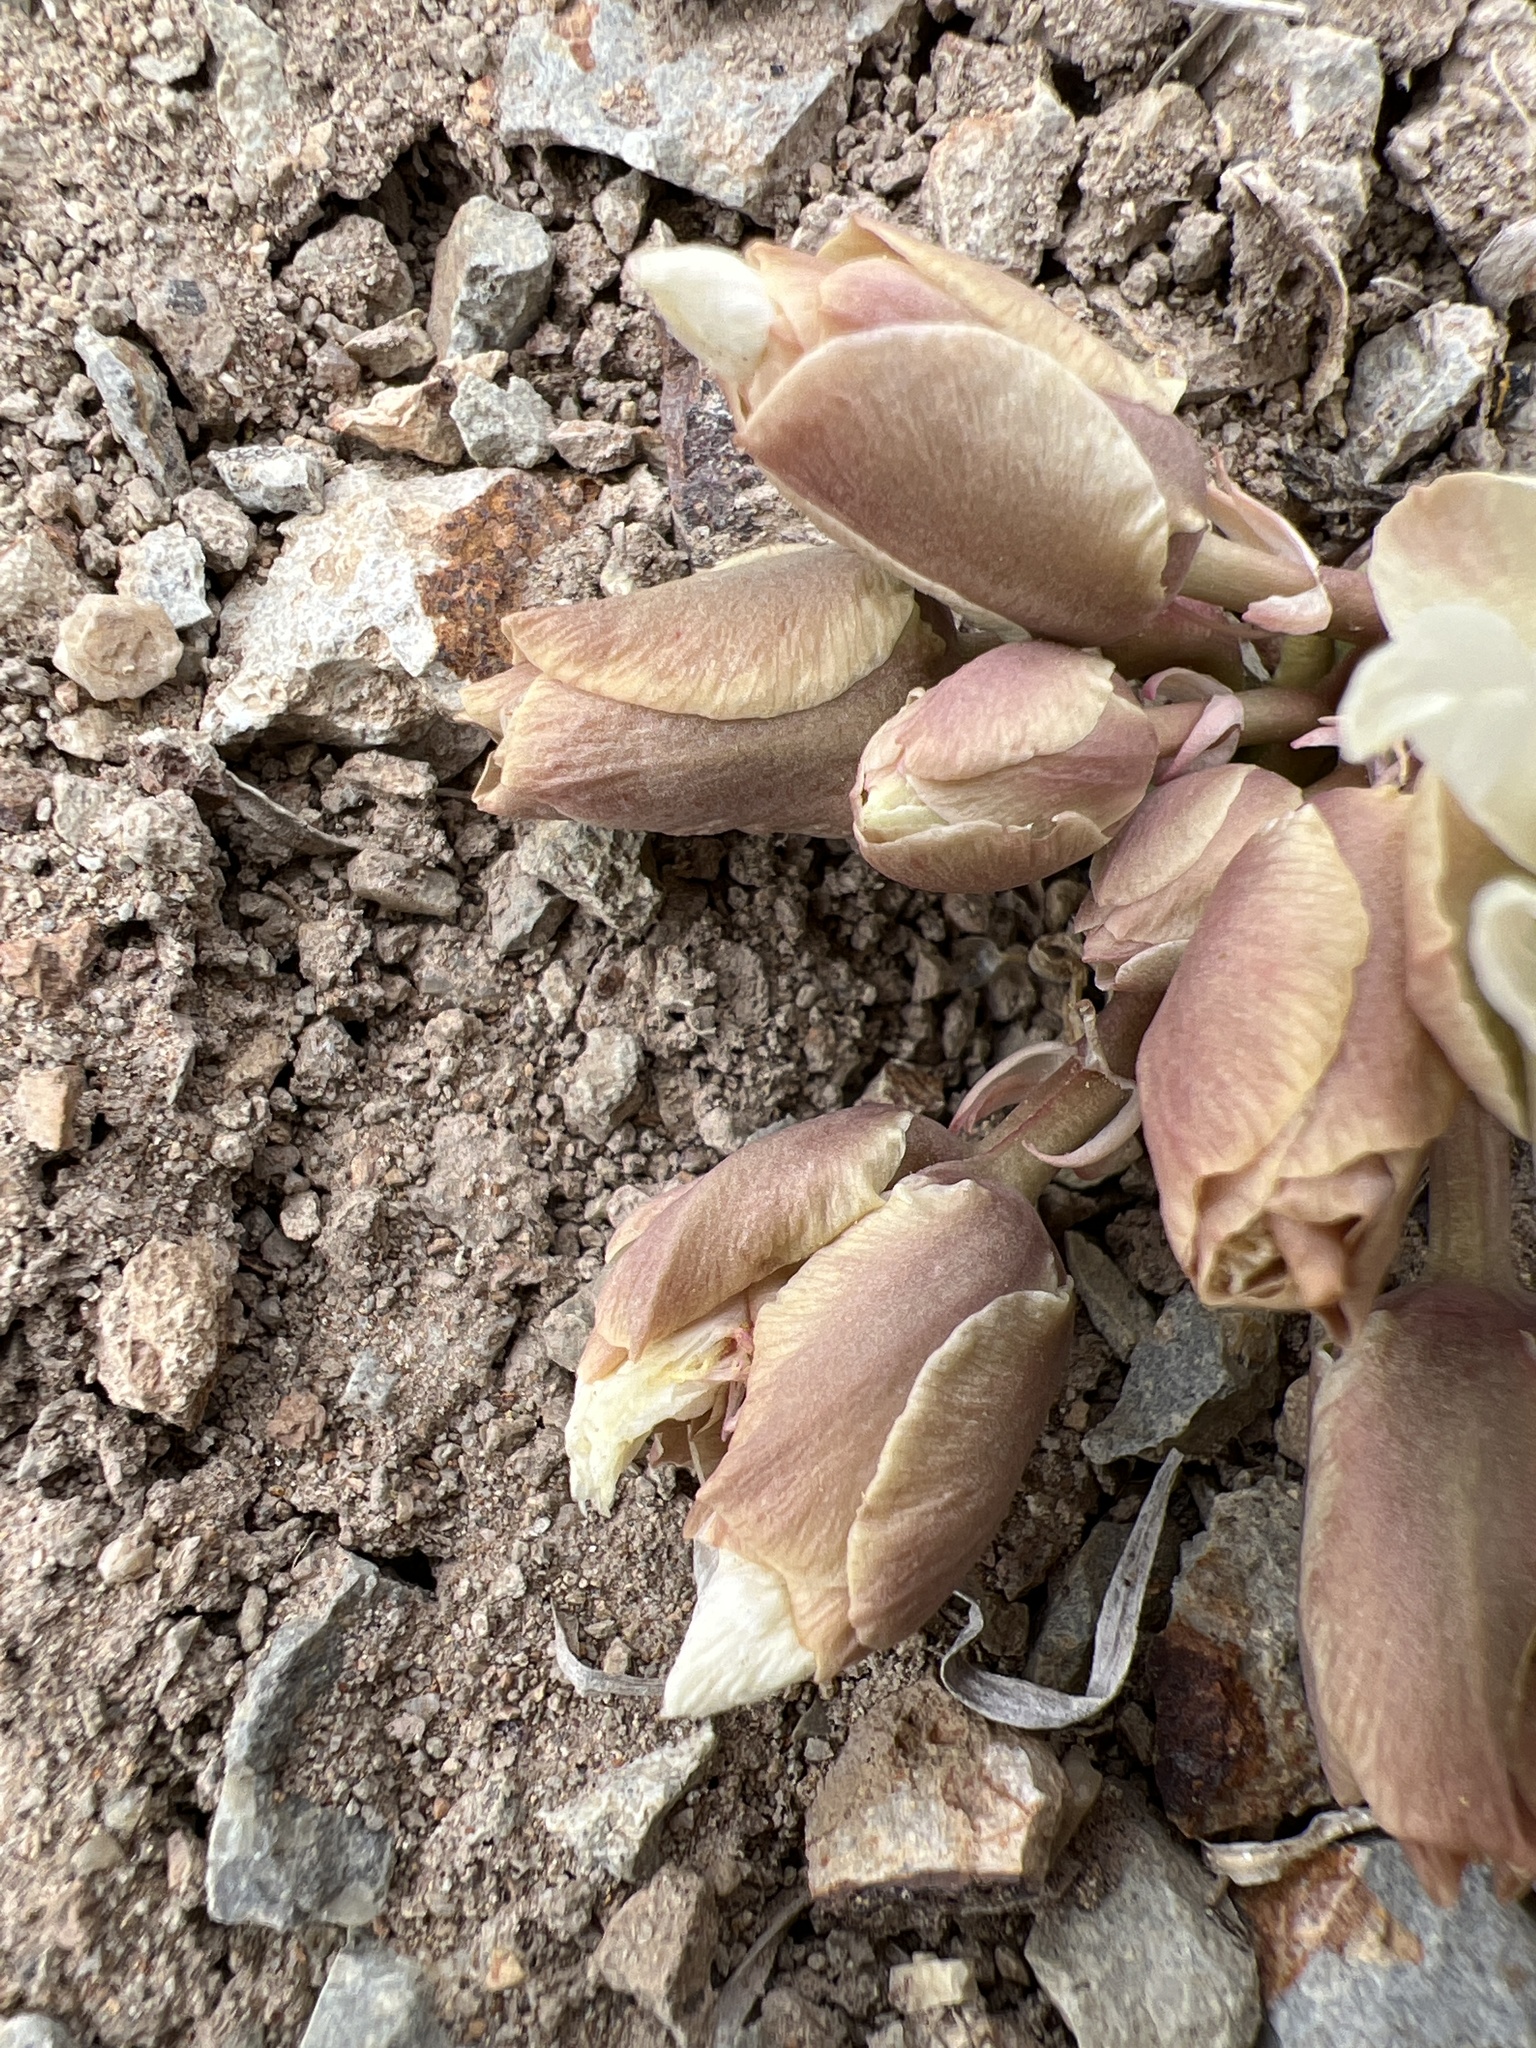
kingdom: Plantae
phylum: Tracheophyta
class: Magnoliopsida
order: Caryophyllales
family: Montiaceae
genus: Lewisia
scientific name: Lewisia rediviva
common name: Bitter-root
